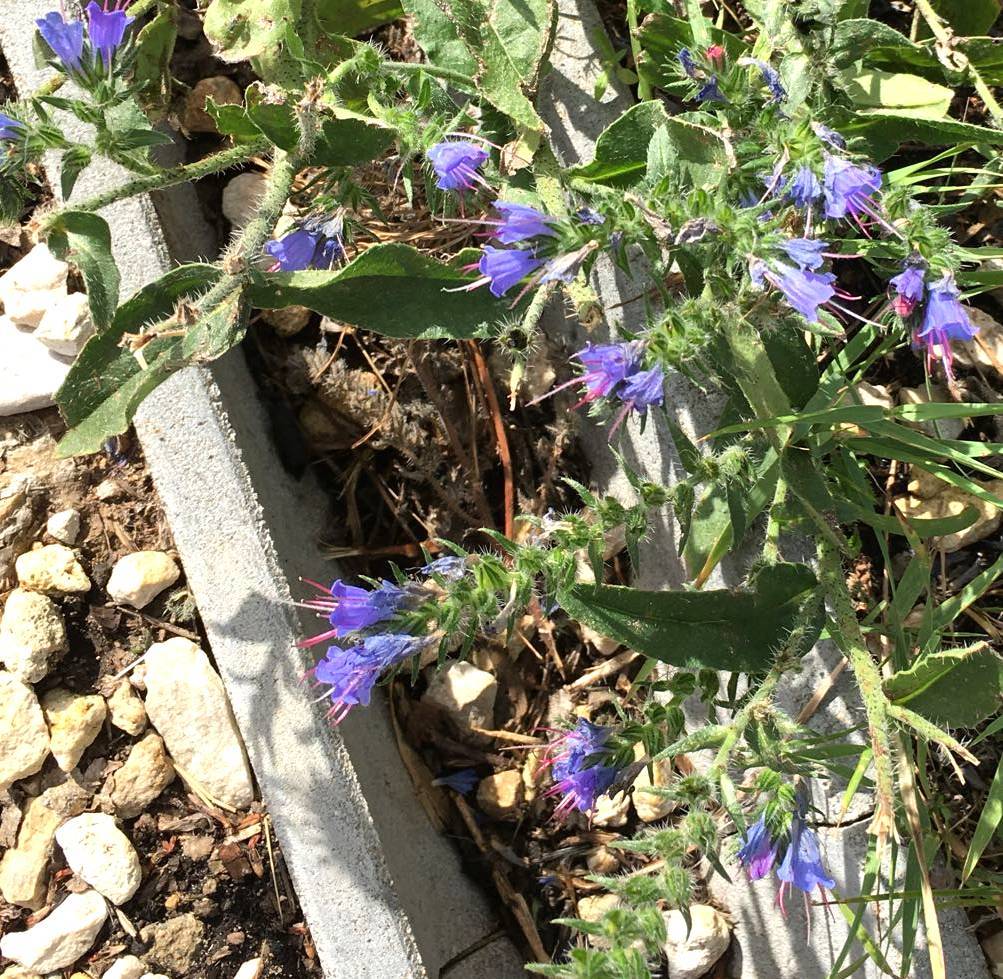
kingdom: Plantae
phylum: Tracheophyta
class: Magnoliopsida
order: Boraginales
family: Boraginaceae
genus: Echium
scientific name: Echium vulgare
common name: Common viper's bugloss
